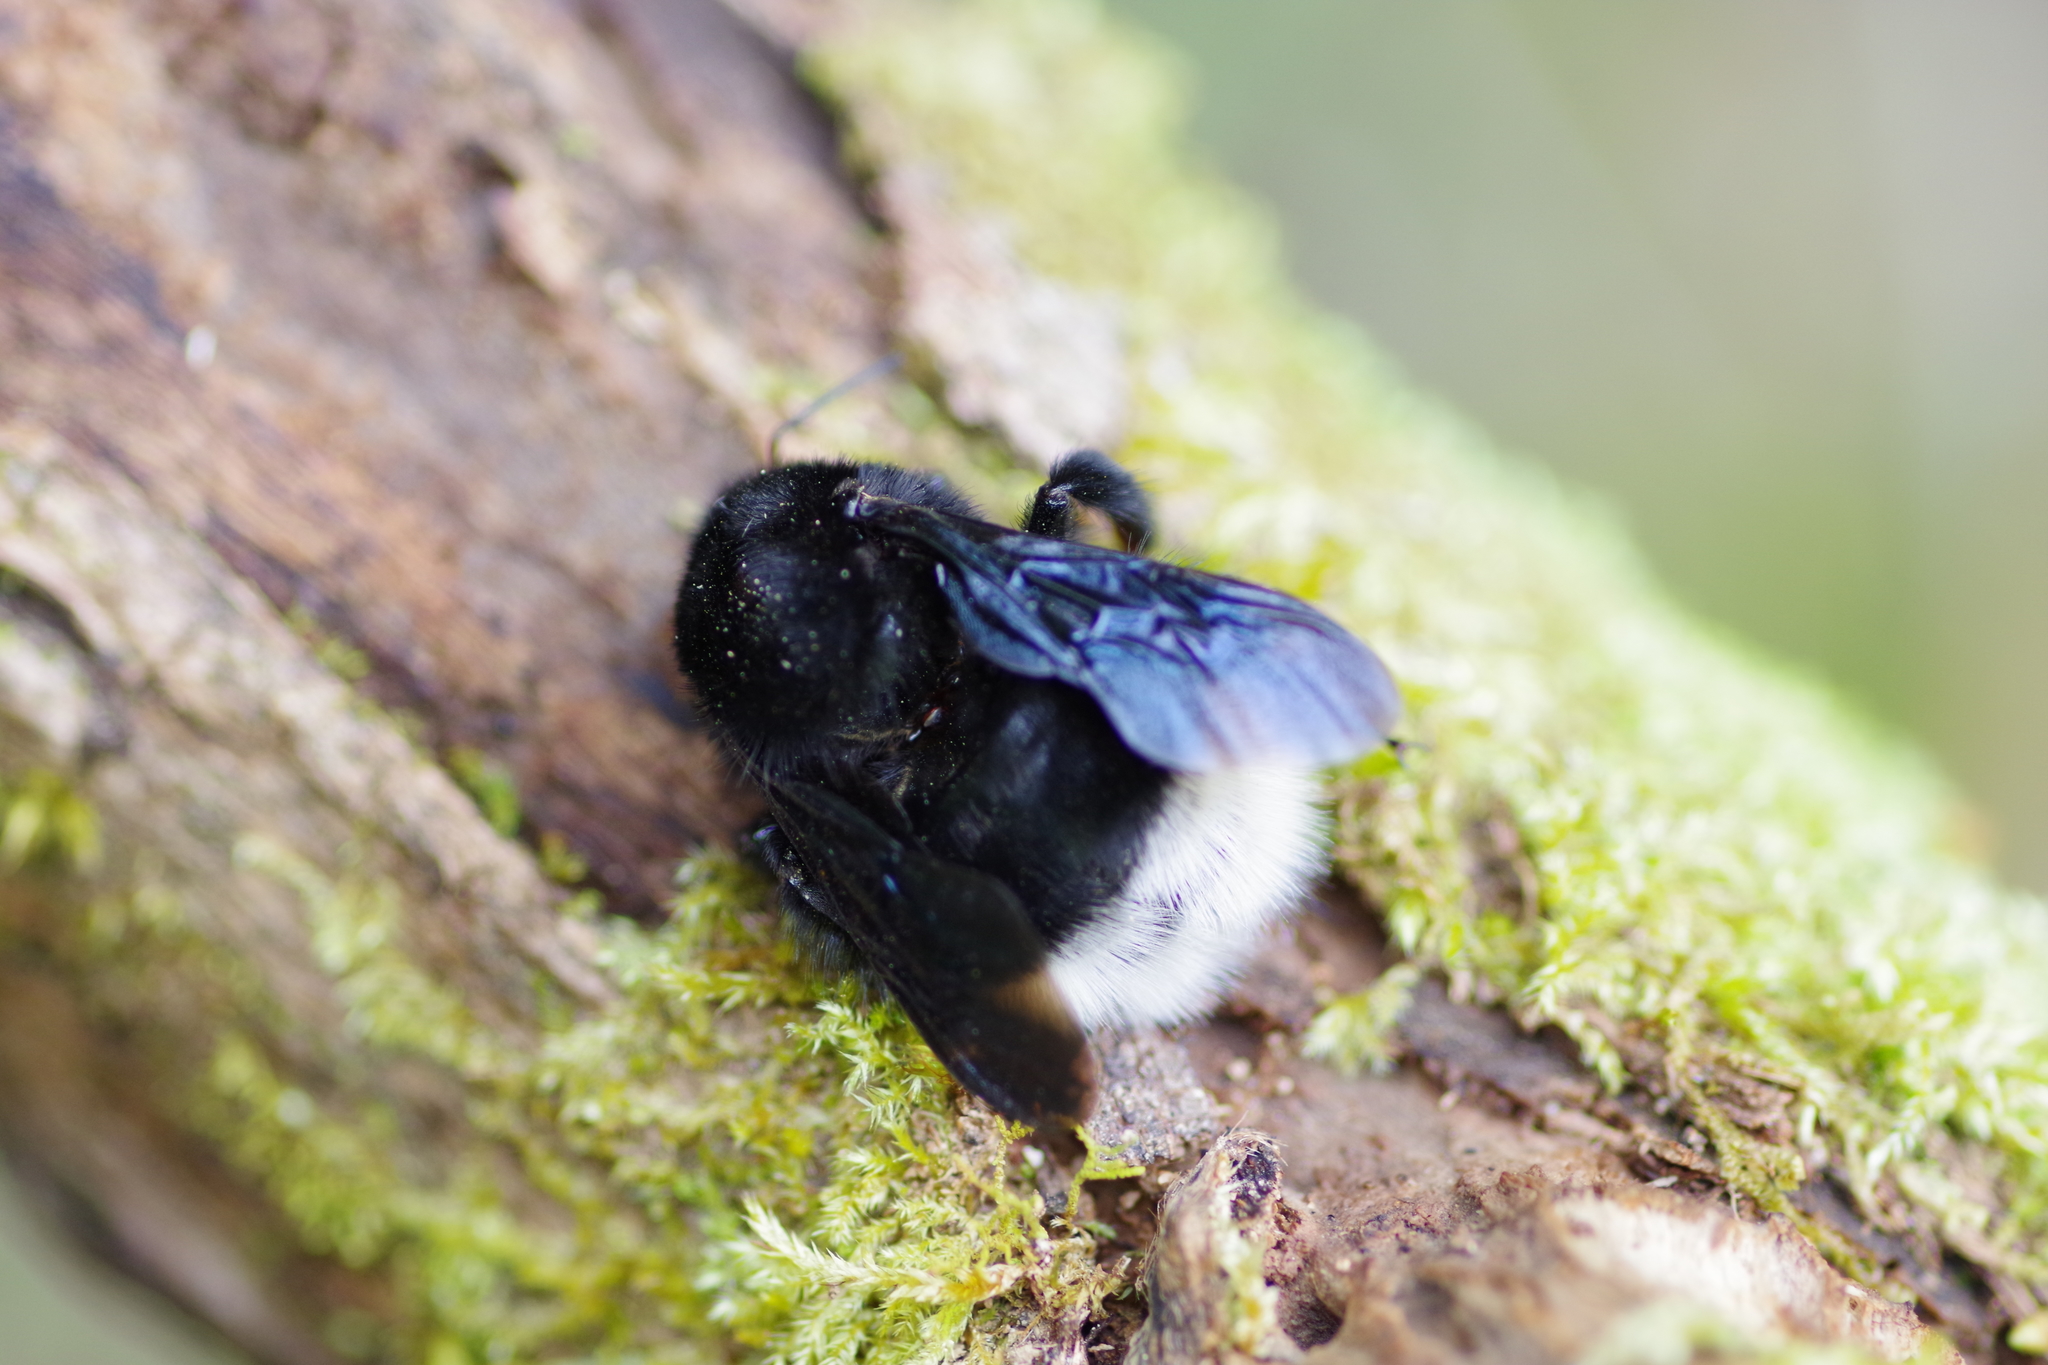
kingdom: Animalia
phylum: Arthropoda
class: Insecta
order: Hymenoptera
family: Apidae
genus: Bombus
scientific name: Bombus volucelloides
